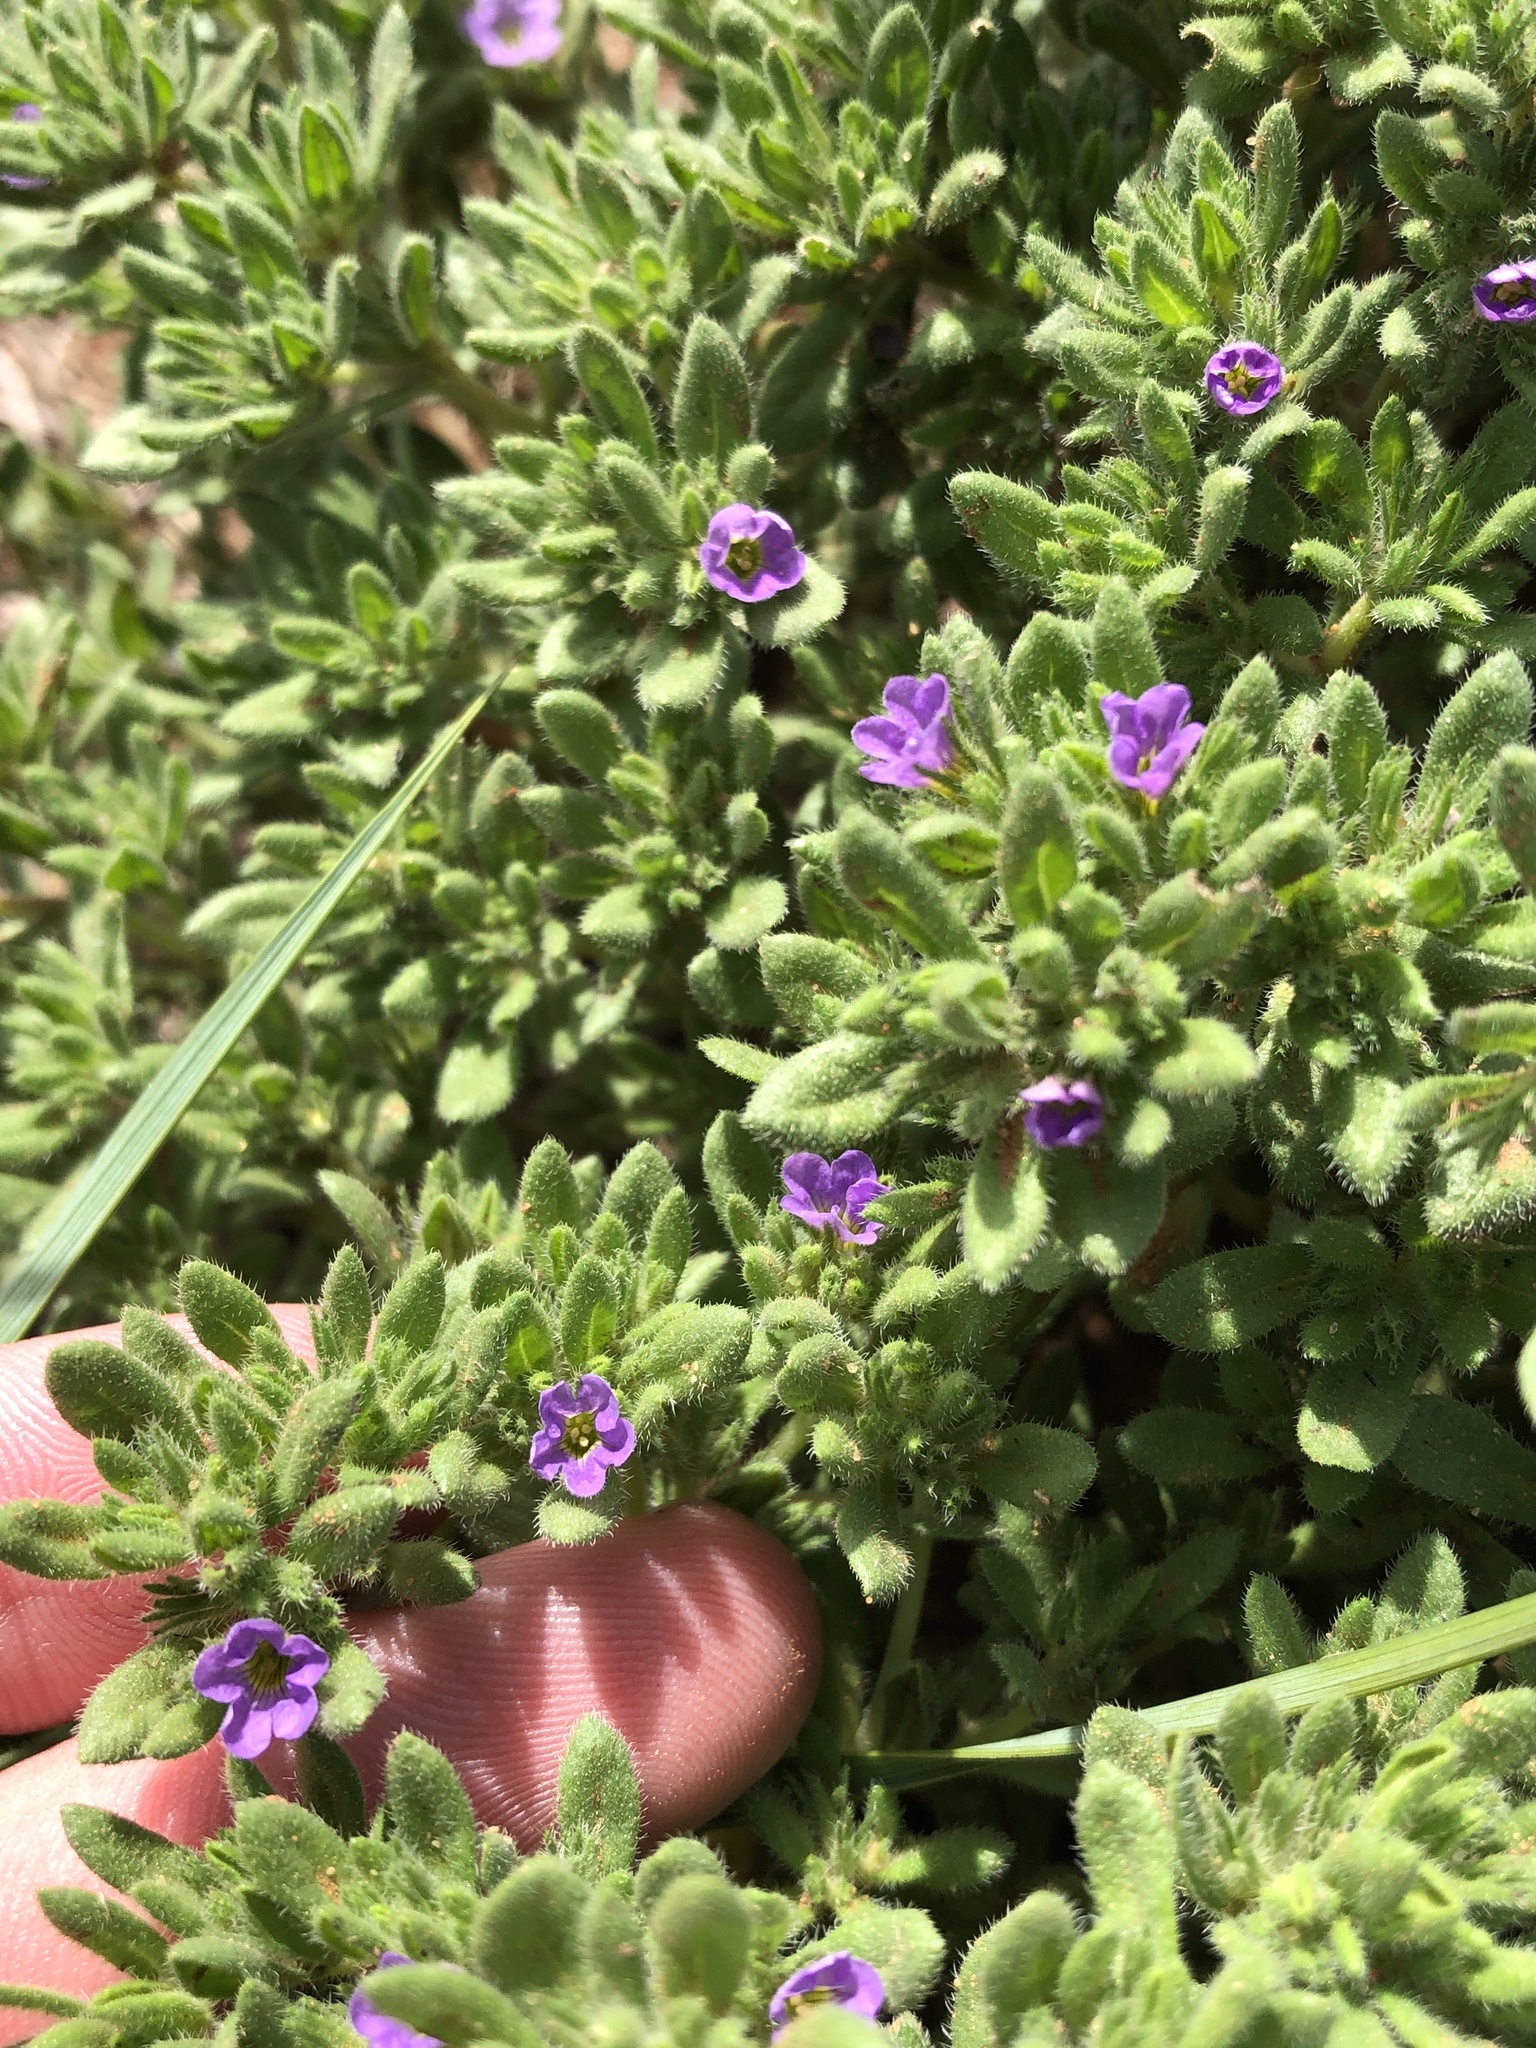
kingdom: Plantae
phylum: Tracheophyta
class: Magnoliopsida
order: Boraginales
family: Namaceae
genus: Nama
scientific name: Nama hispida
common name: Bristly nama
